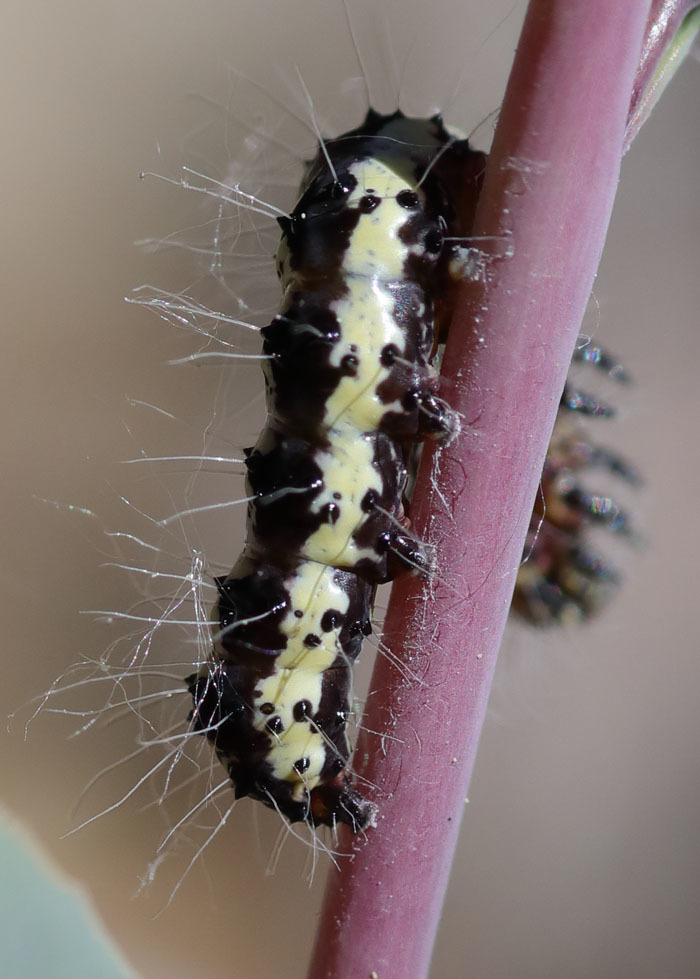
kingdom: Animalia
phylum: Arthropoda
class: Insecta
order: Lepidoptera
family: Noctuidae
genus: Alypia
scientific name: Alypia ridingsii
